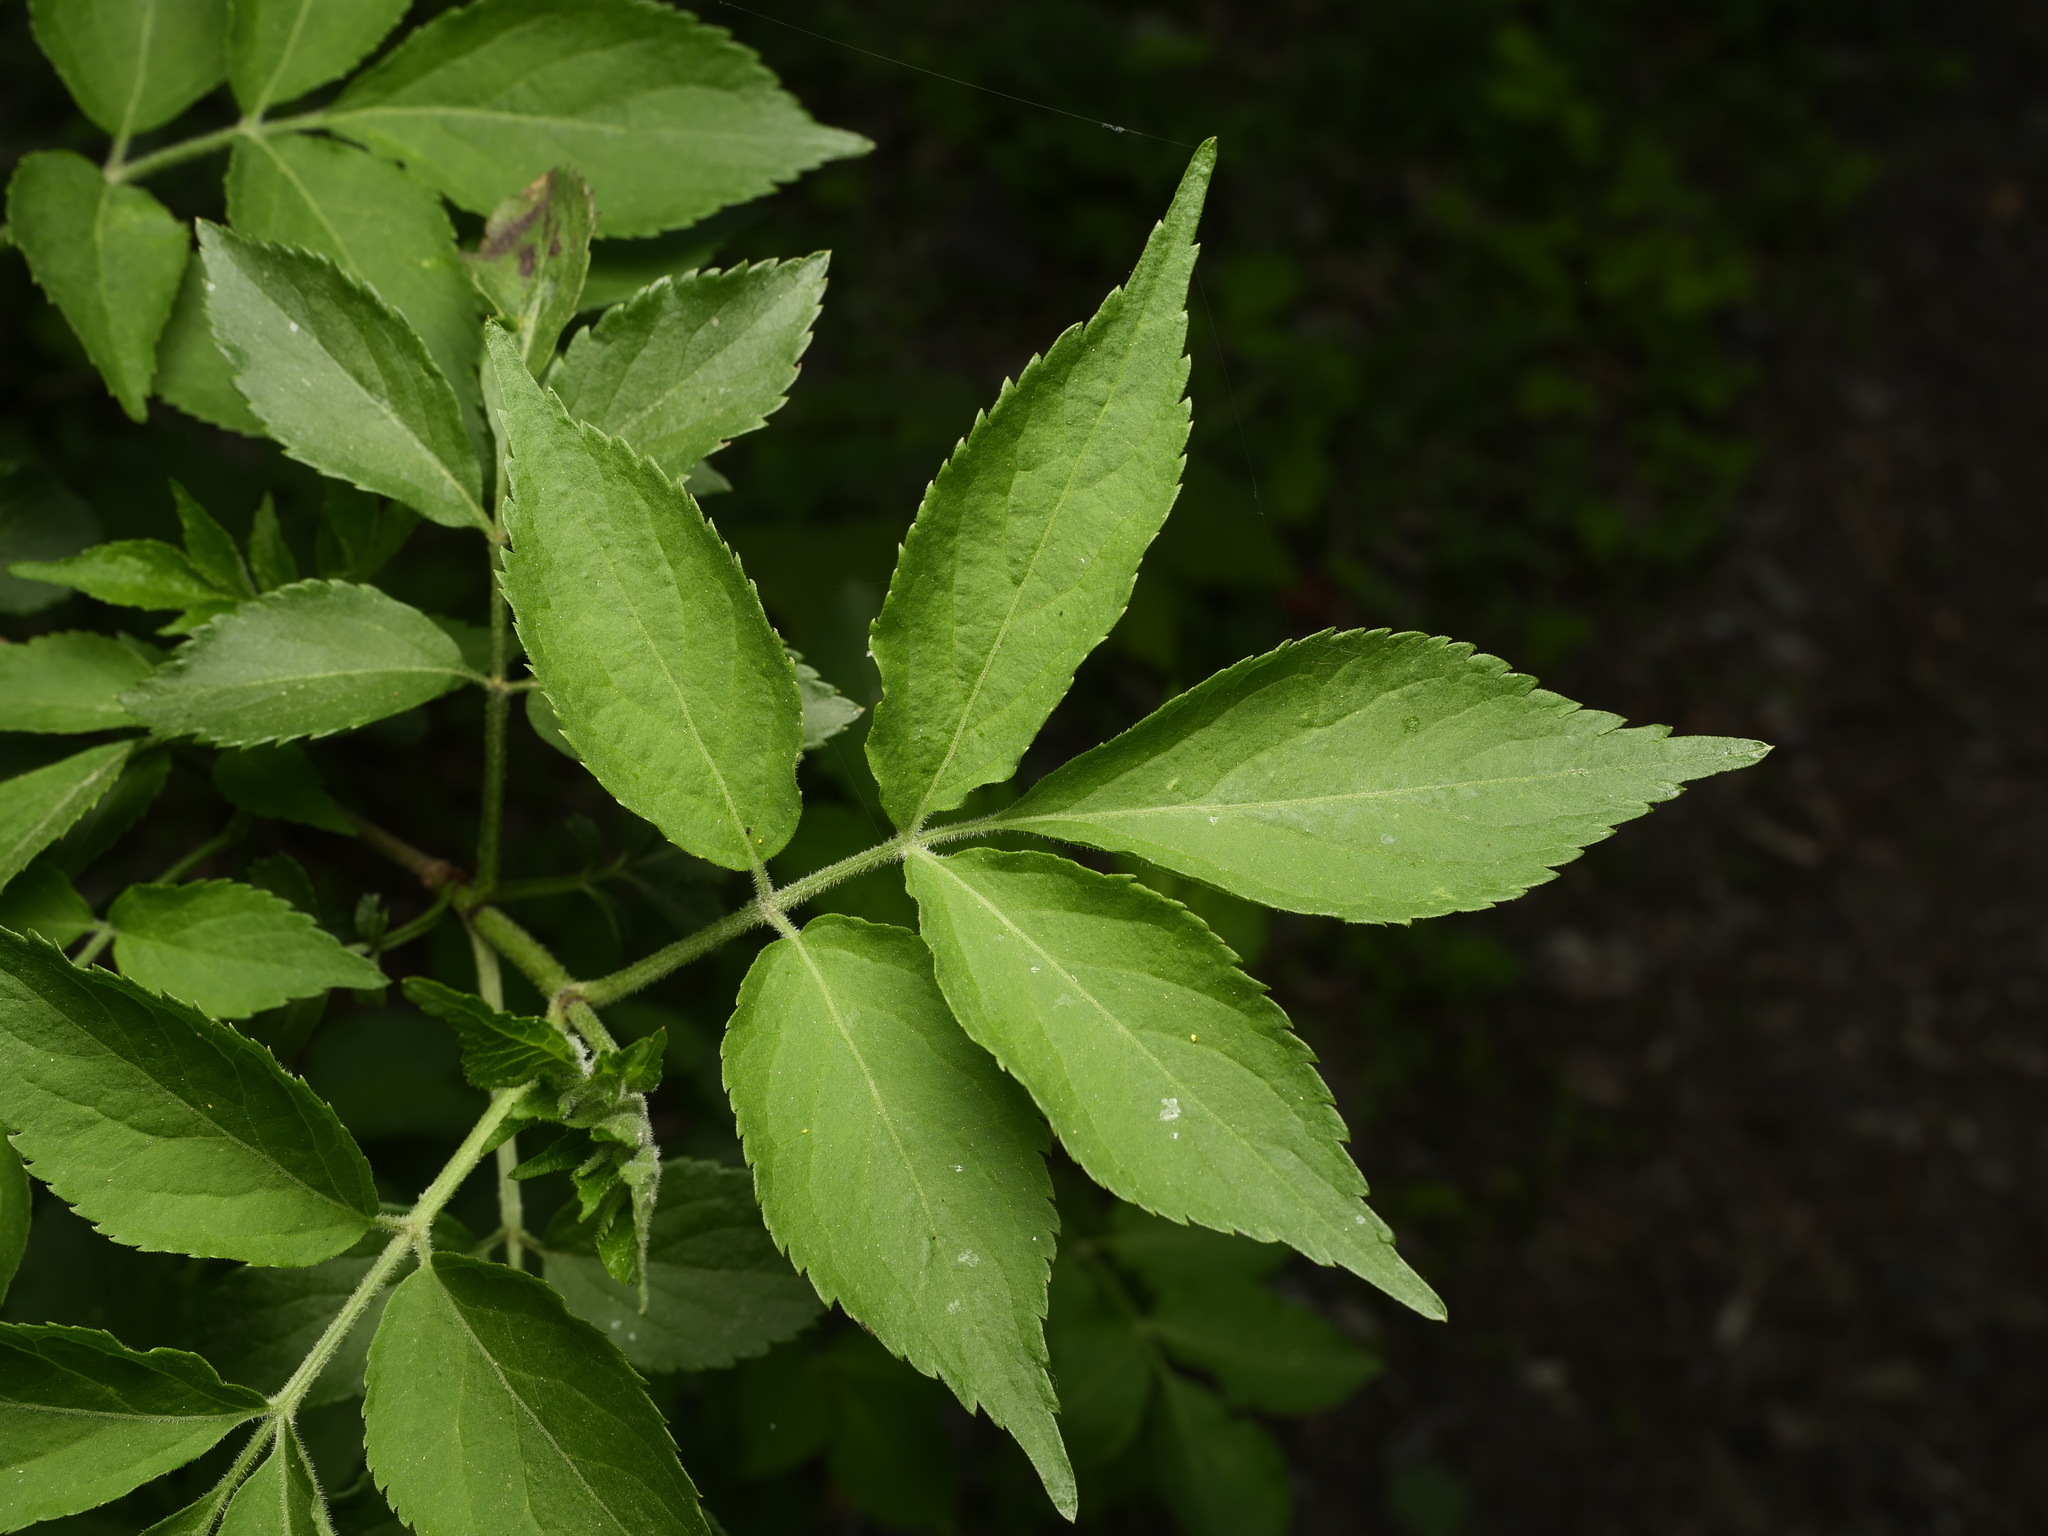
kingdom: Plantae
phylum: Tracheophyta
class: Magnoliopsida
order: Dipsacales
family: Viburnaceae
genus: Sambucus
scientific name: Sambucus nigra
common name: Elder
